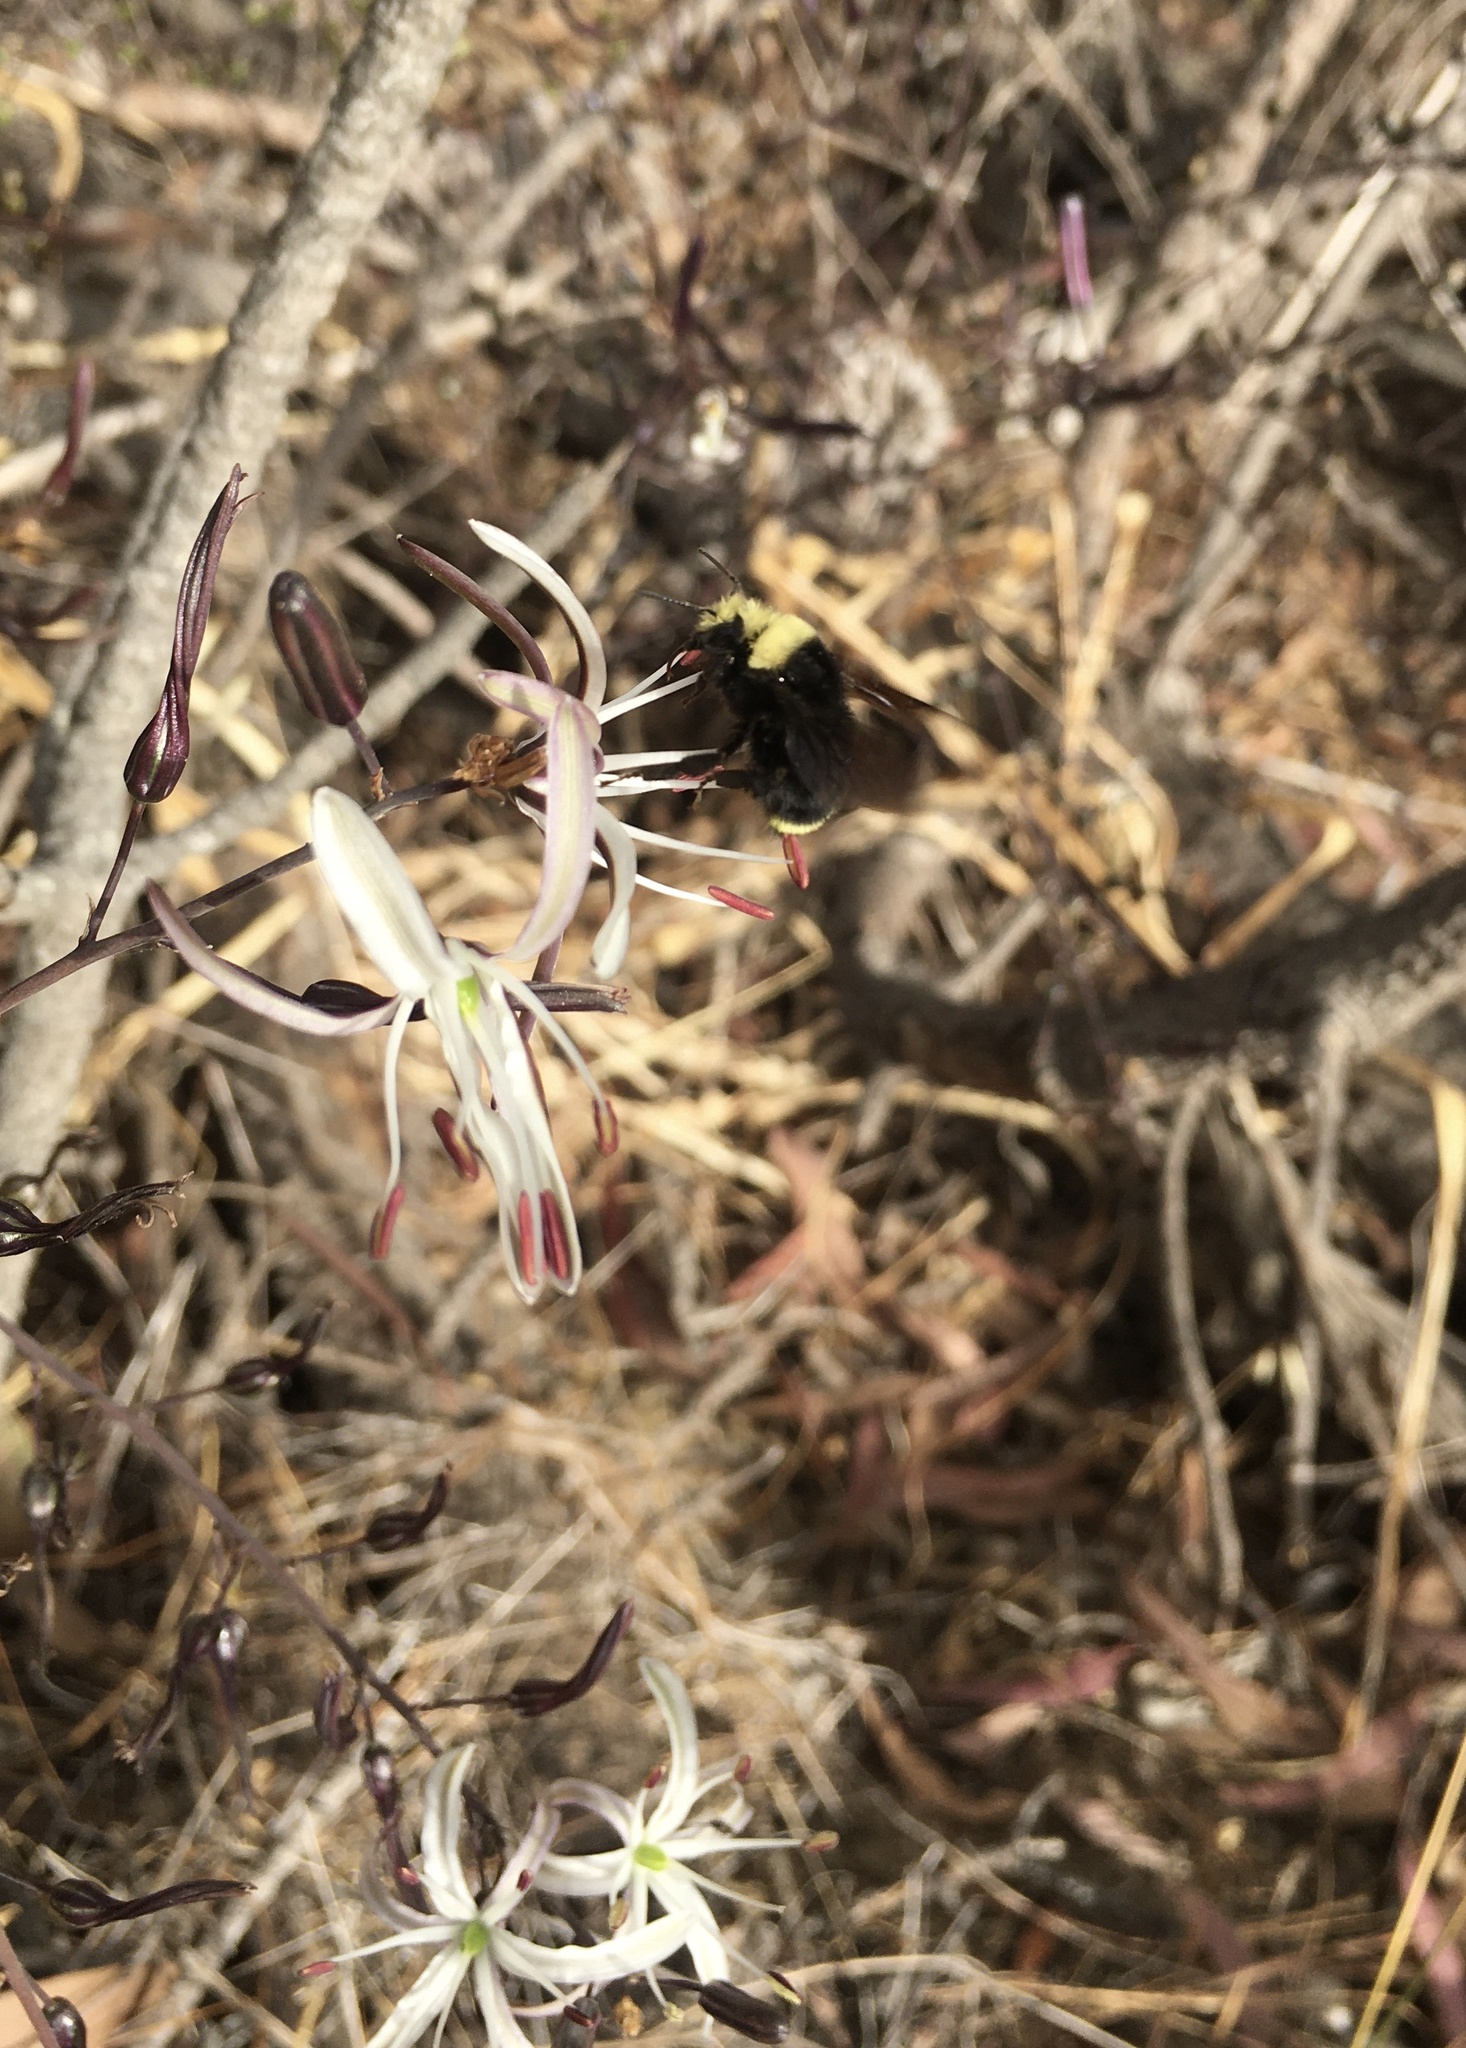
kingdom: Plantae
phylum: Tracheophyta
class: Liliopsida
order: Asparagales
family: Asparagaceae
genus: Chlorogalum
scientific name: Chlorogalum pomeridianum
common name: Amole
